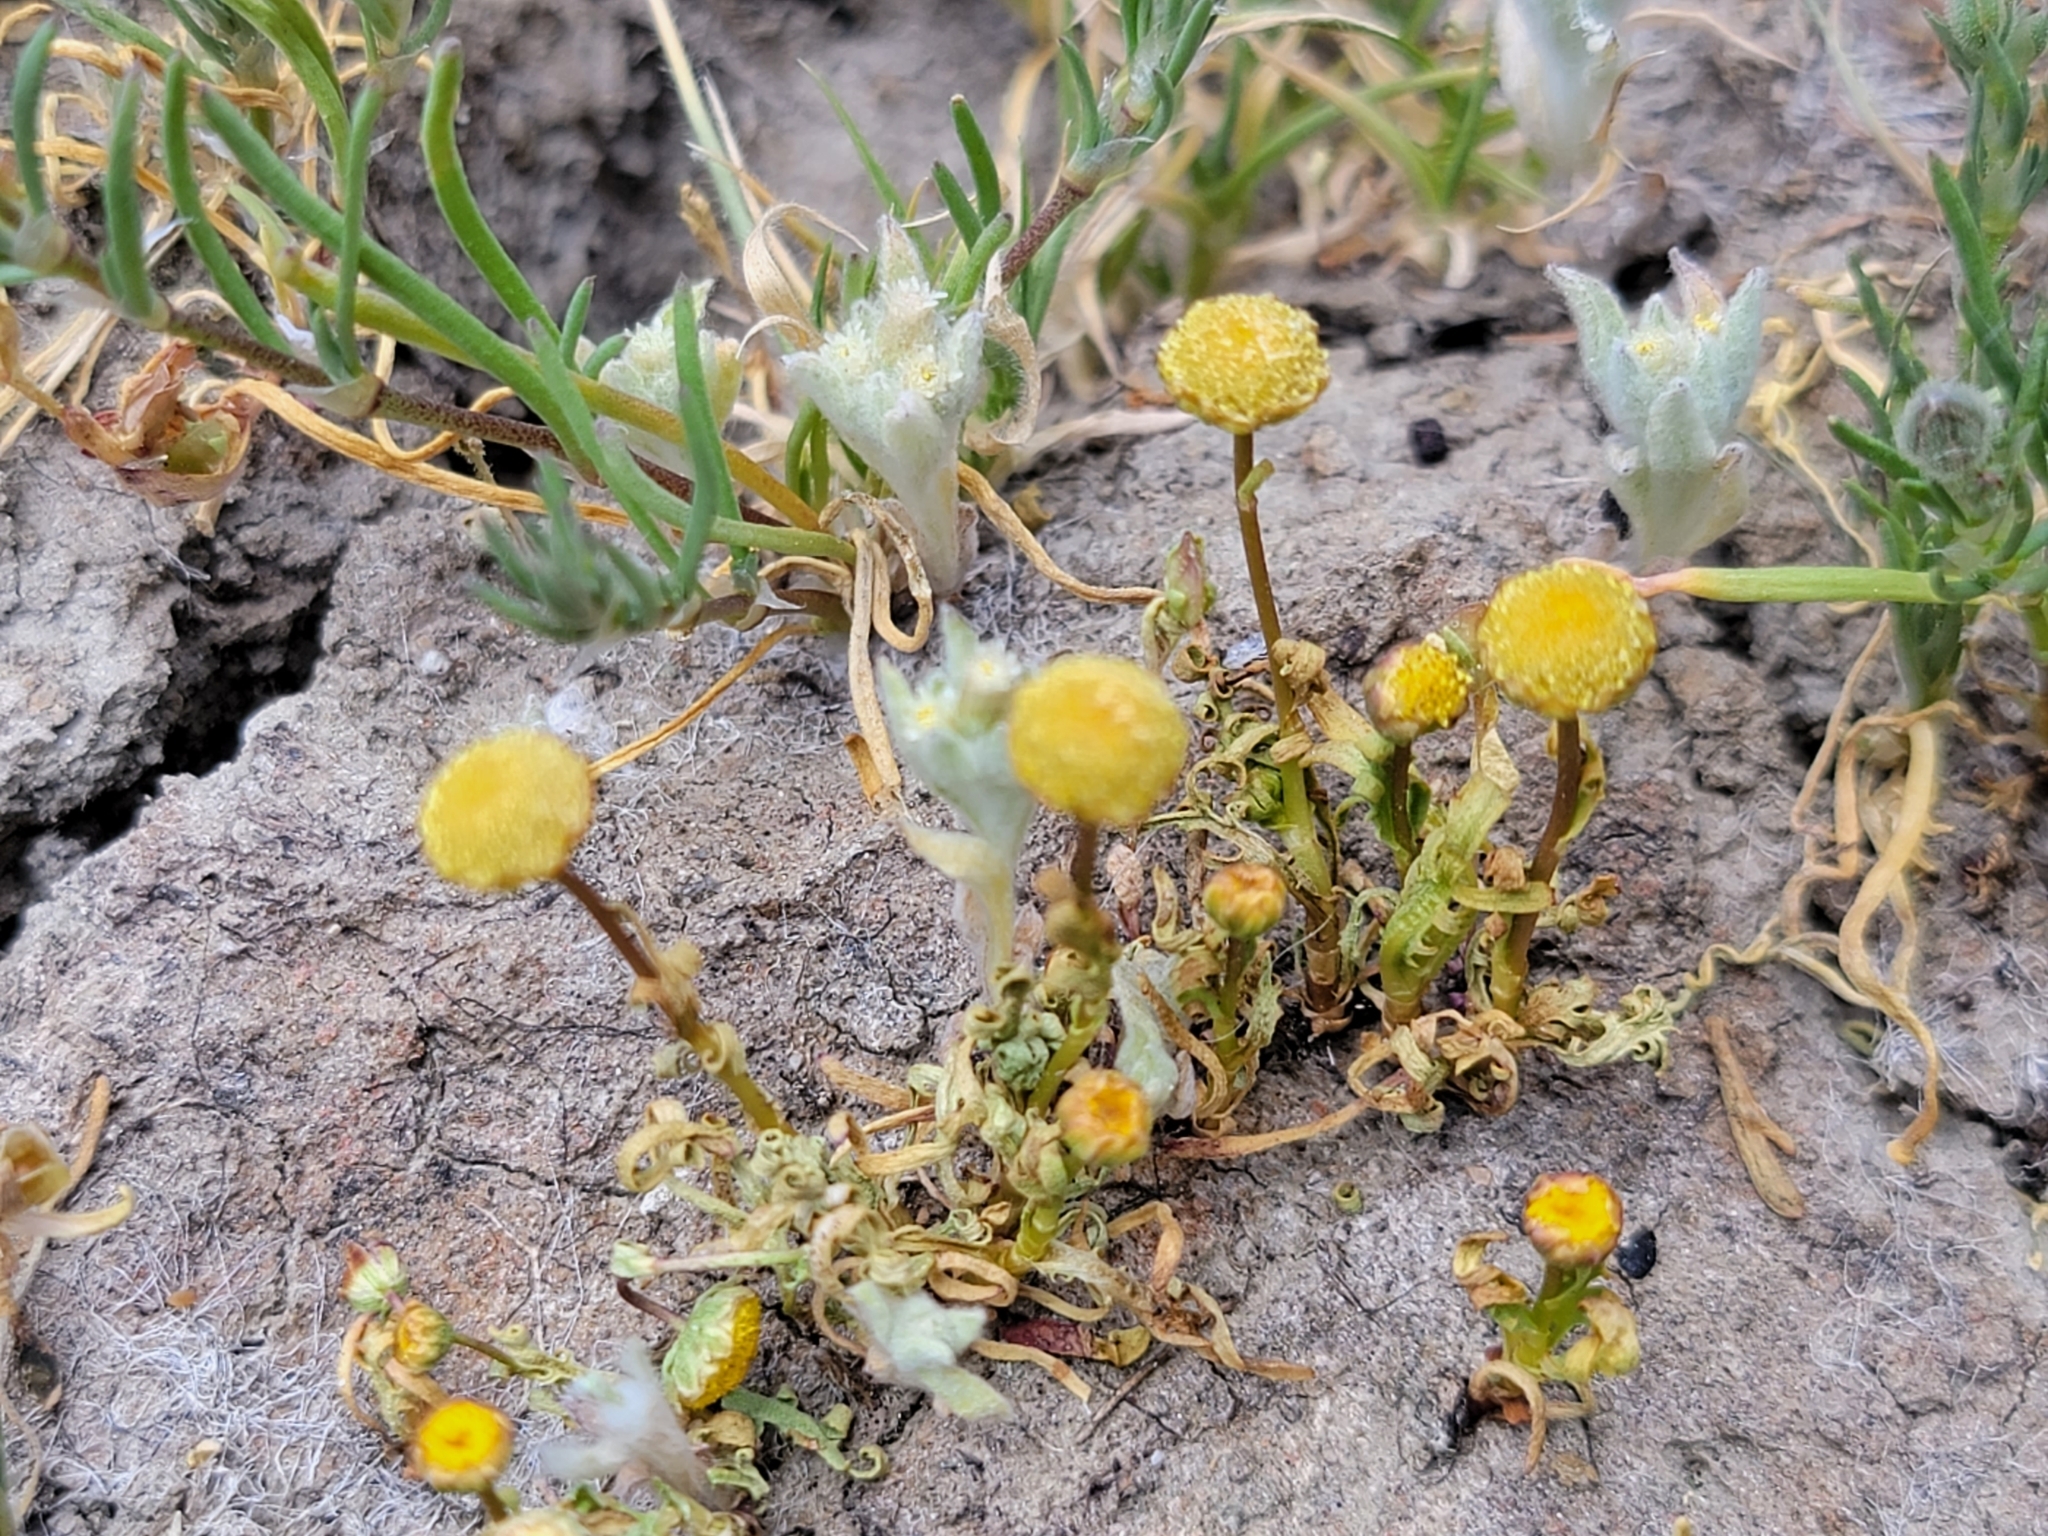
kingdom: Plantae
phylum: Tracheophyta
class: Magnoliopsida
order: Asterales
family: Asteraceae
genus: Cotula
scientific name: Cotula coronopifolia
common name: Buttonweed
